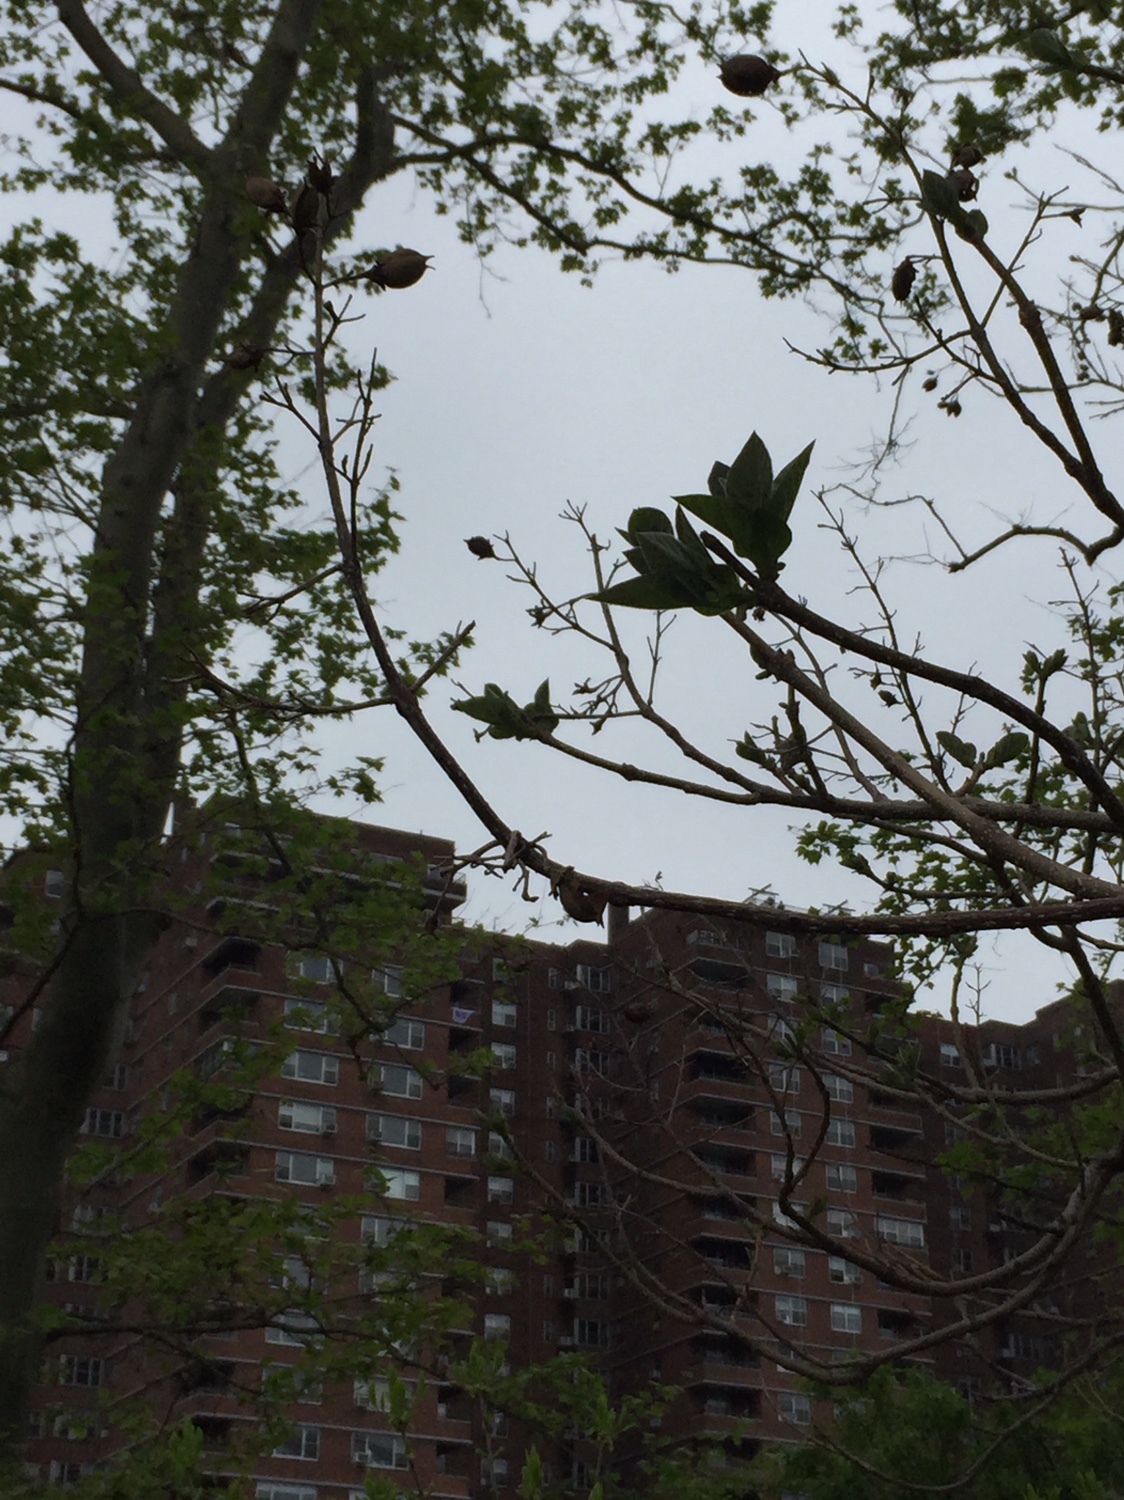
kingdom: Plantae
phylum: Tracheophyta
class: Magnoliopsida
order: Lamiales
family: Paulowniaceae
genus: Paulownia
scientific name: Paulownia tomentosa
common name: Foxglove-tree
